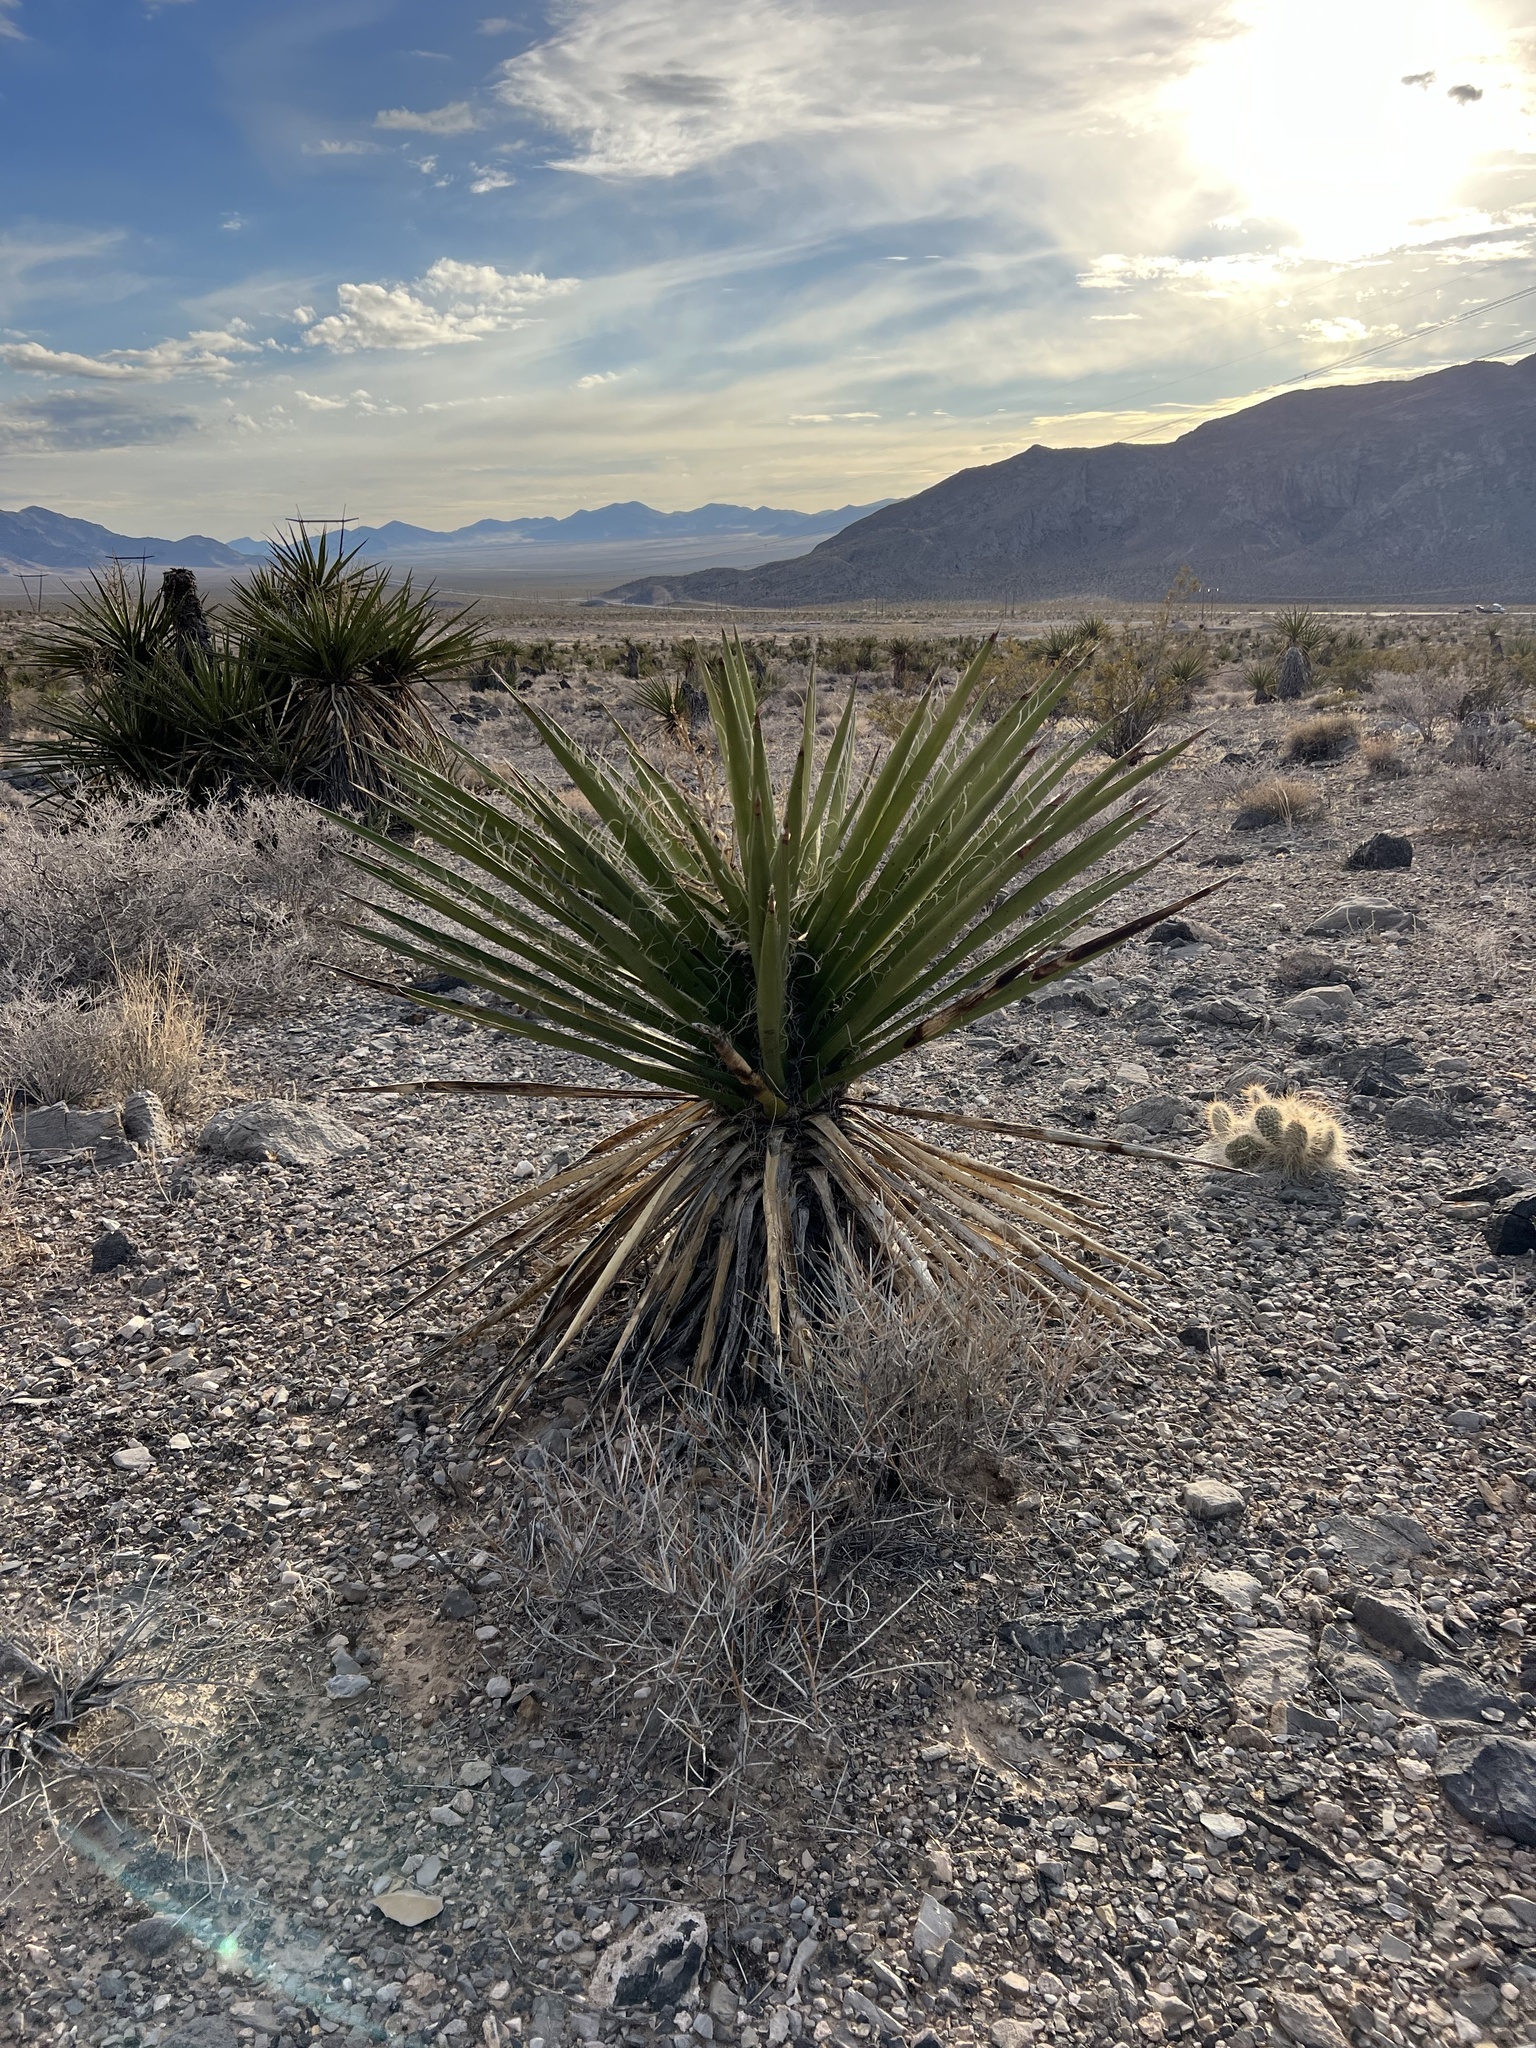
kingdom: Plantae
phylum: Tracheophyta
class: Liliopsida
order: Asparagales
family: Asparagaceae
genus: Yucca
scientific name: Yucca schidigera
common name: Mojave yucca
